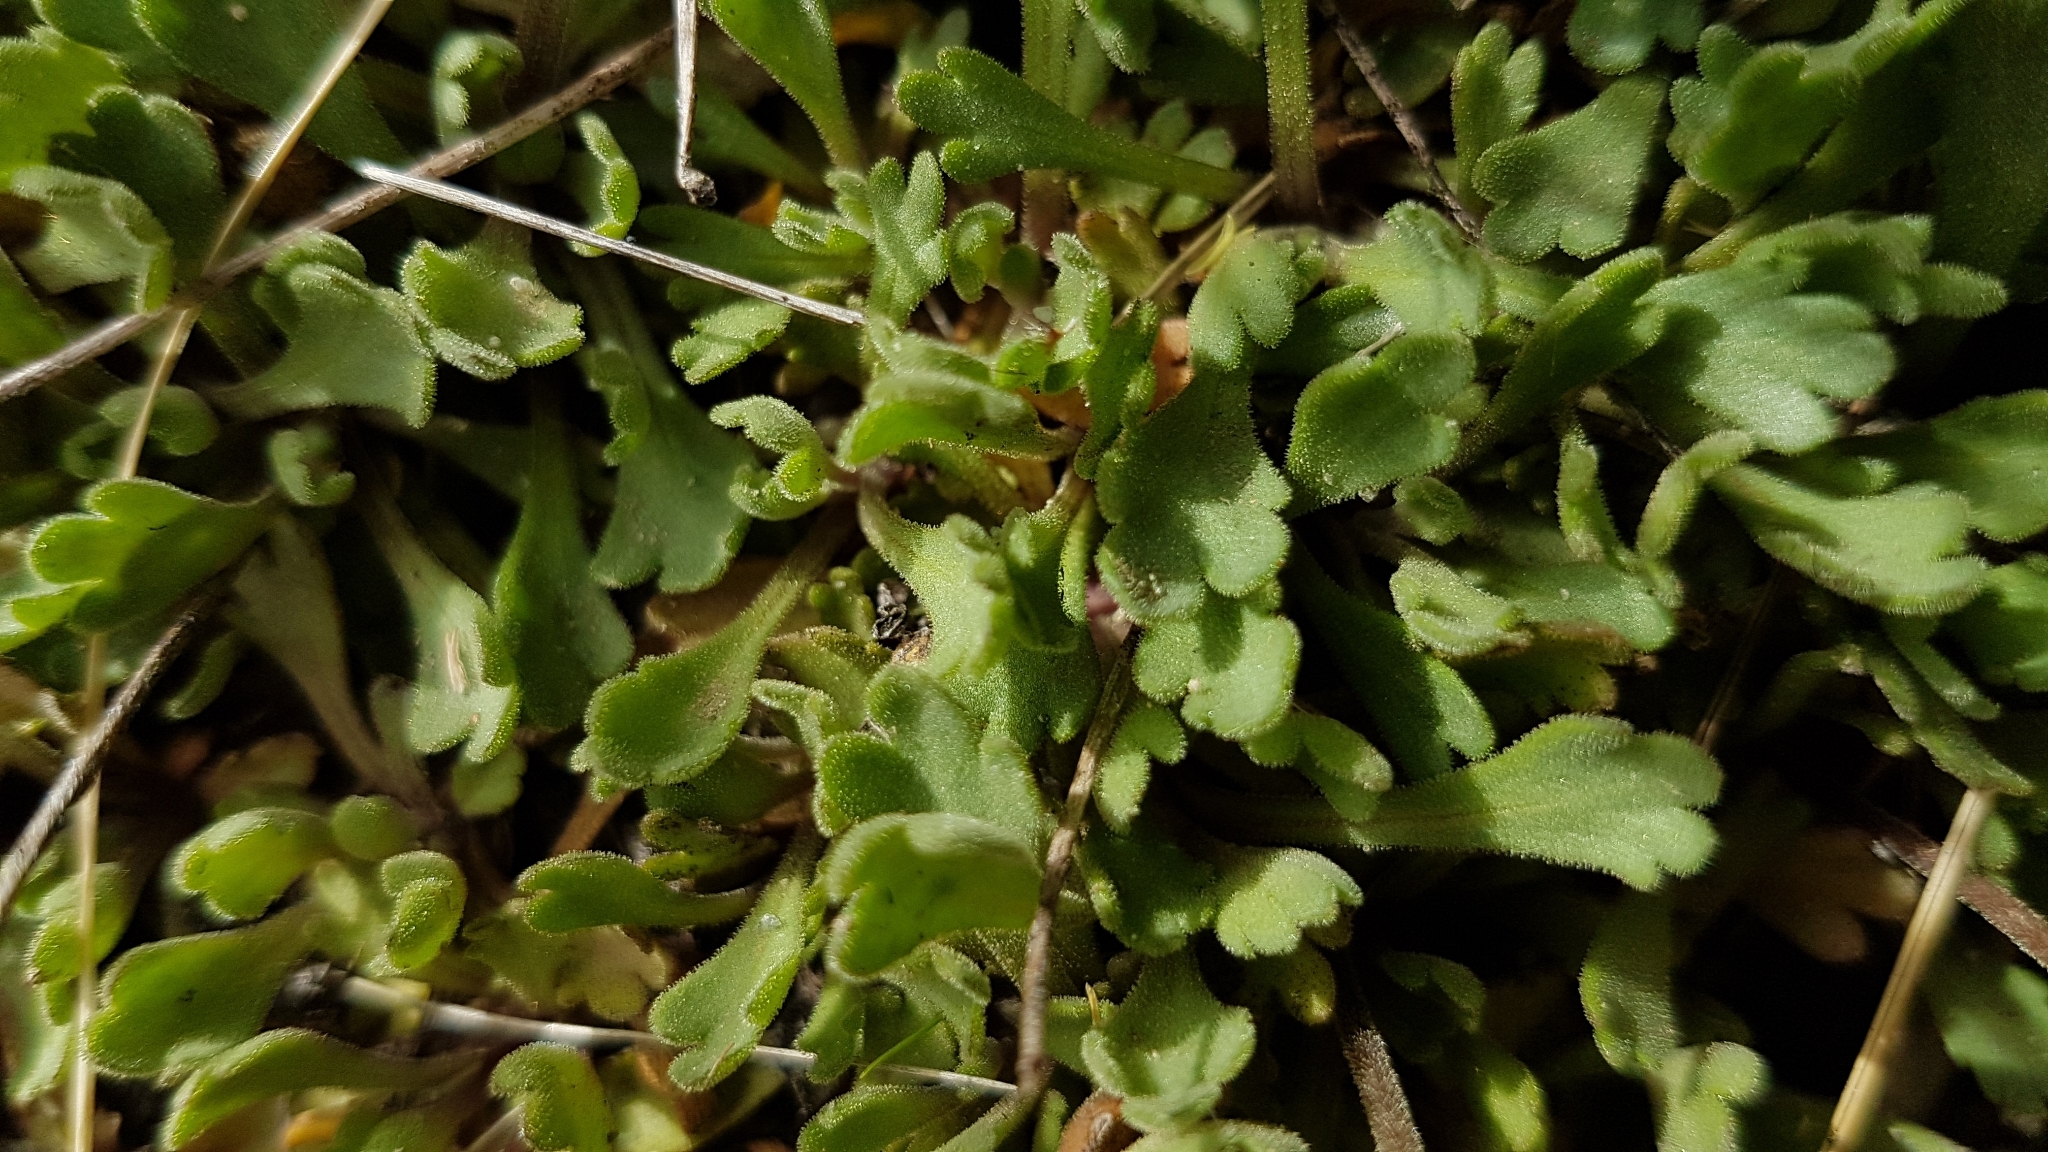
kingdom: Plantae
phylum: Tracheophyta
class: Magnoliopsida
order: Asterales
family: Asteraceae
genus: Brachyscome
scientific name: Brachyscome montana
